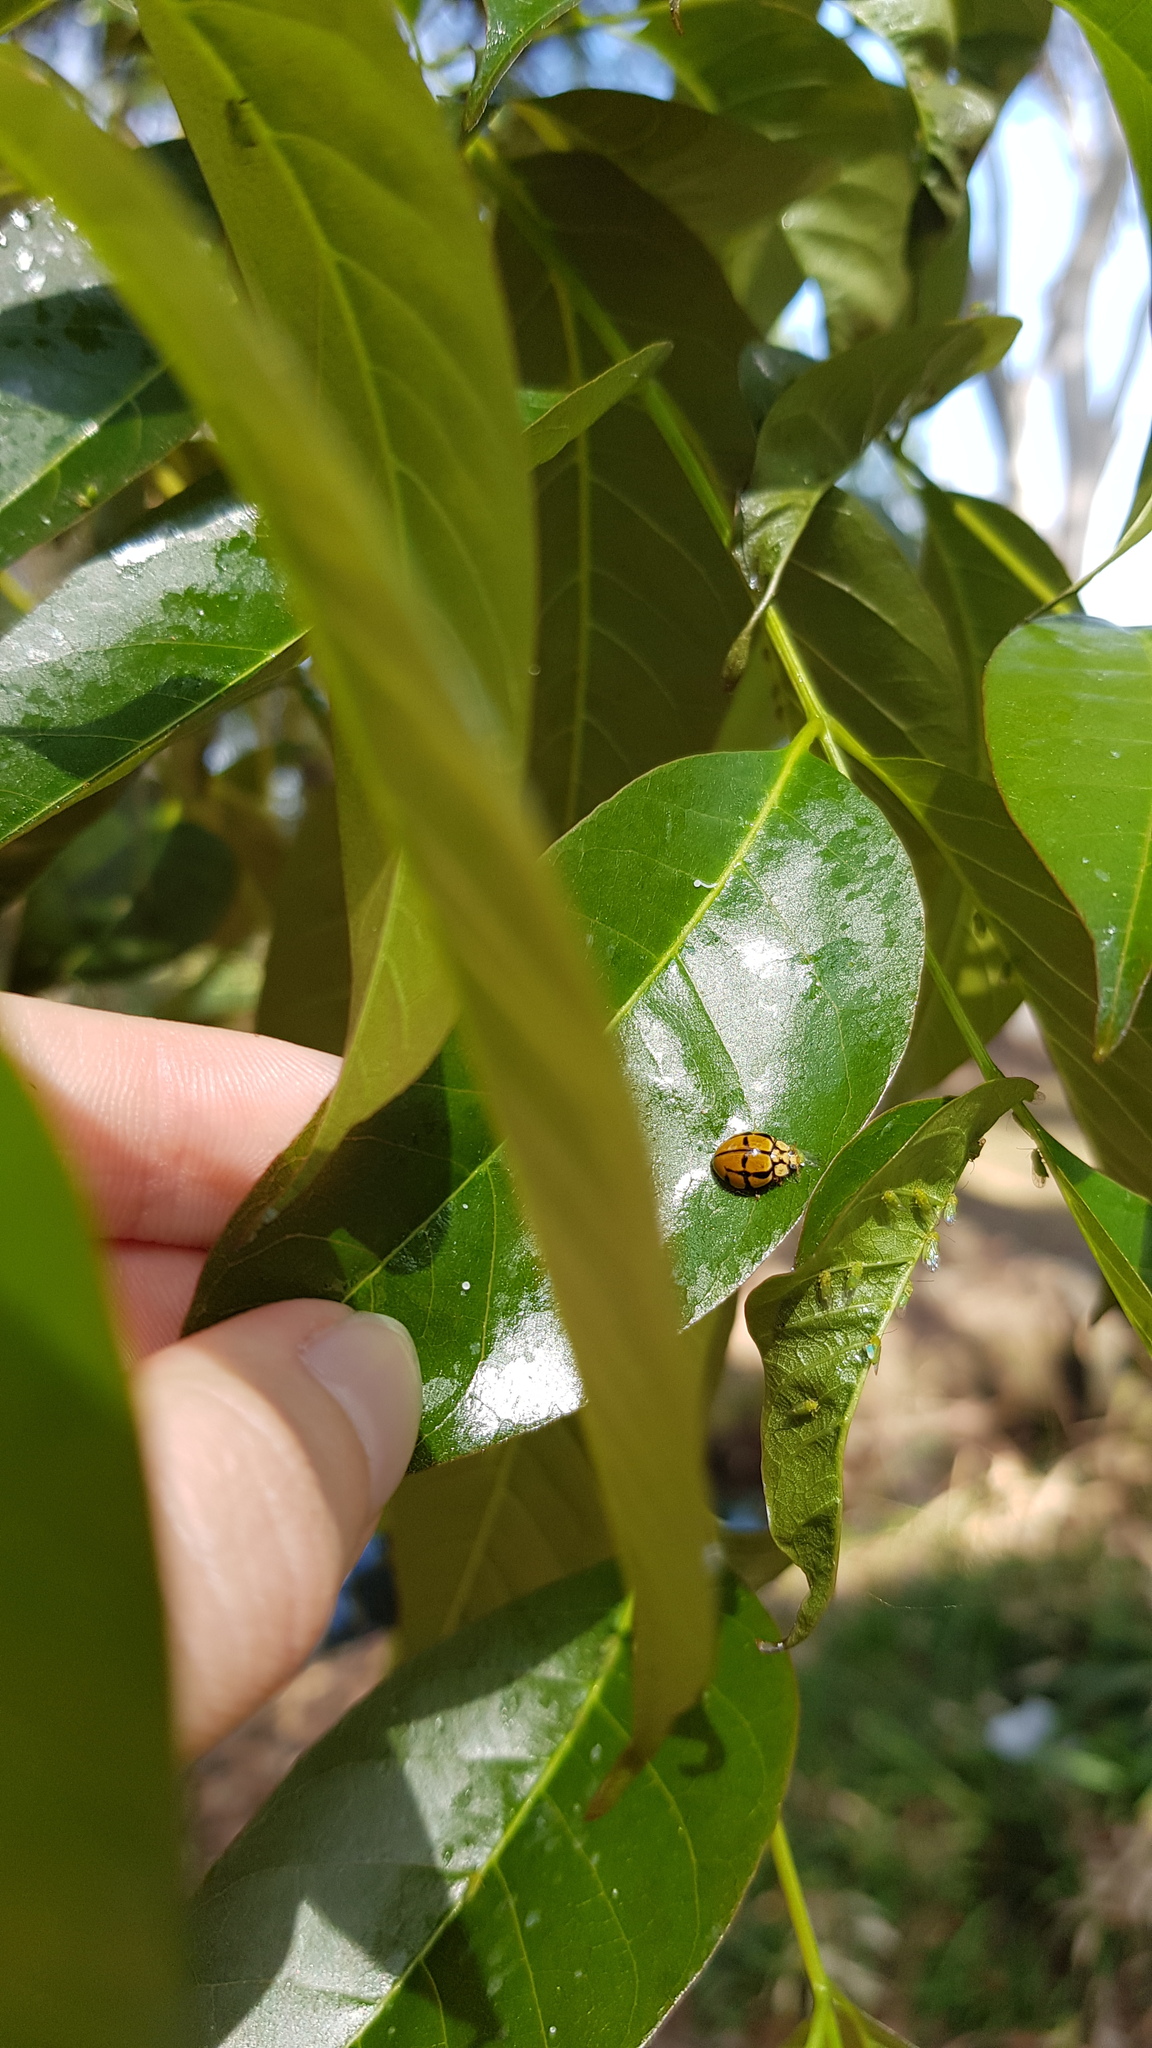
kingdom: Animalia
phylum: Arthropoda
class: Insecta
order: Coleoptera
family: Coccinellidae
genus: Harmonia
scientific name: Harmonia
